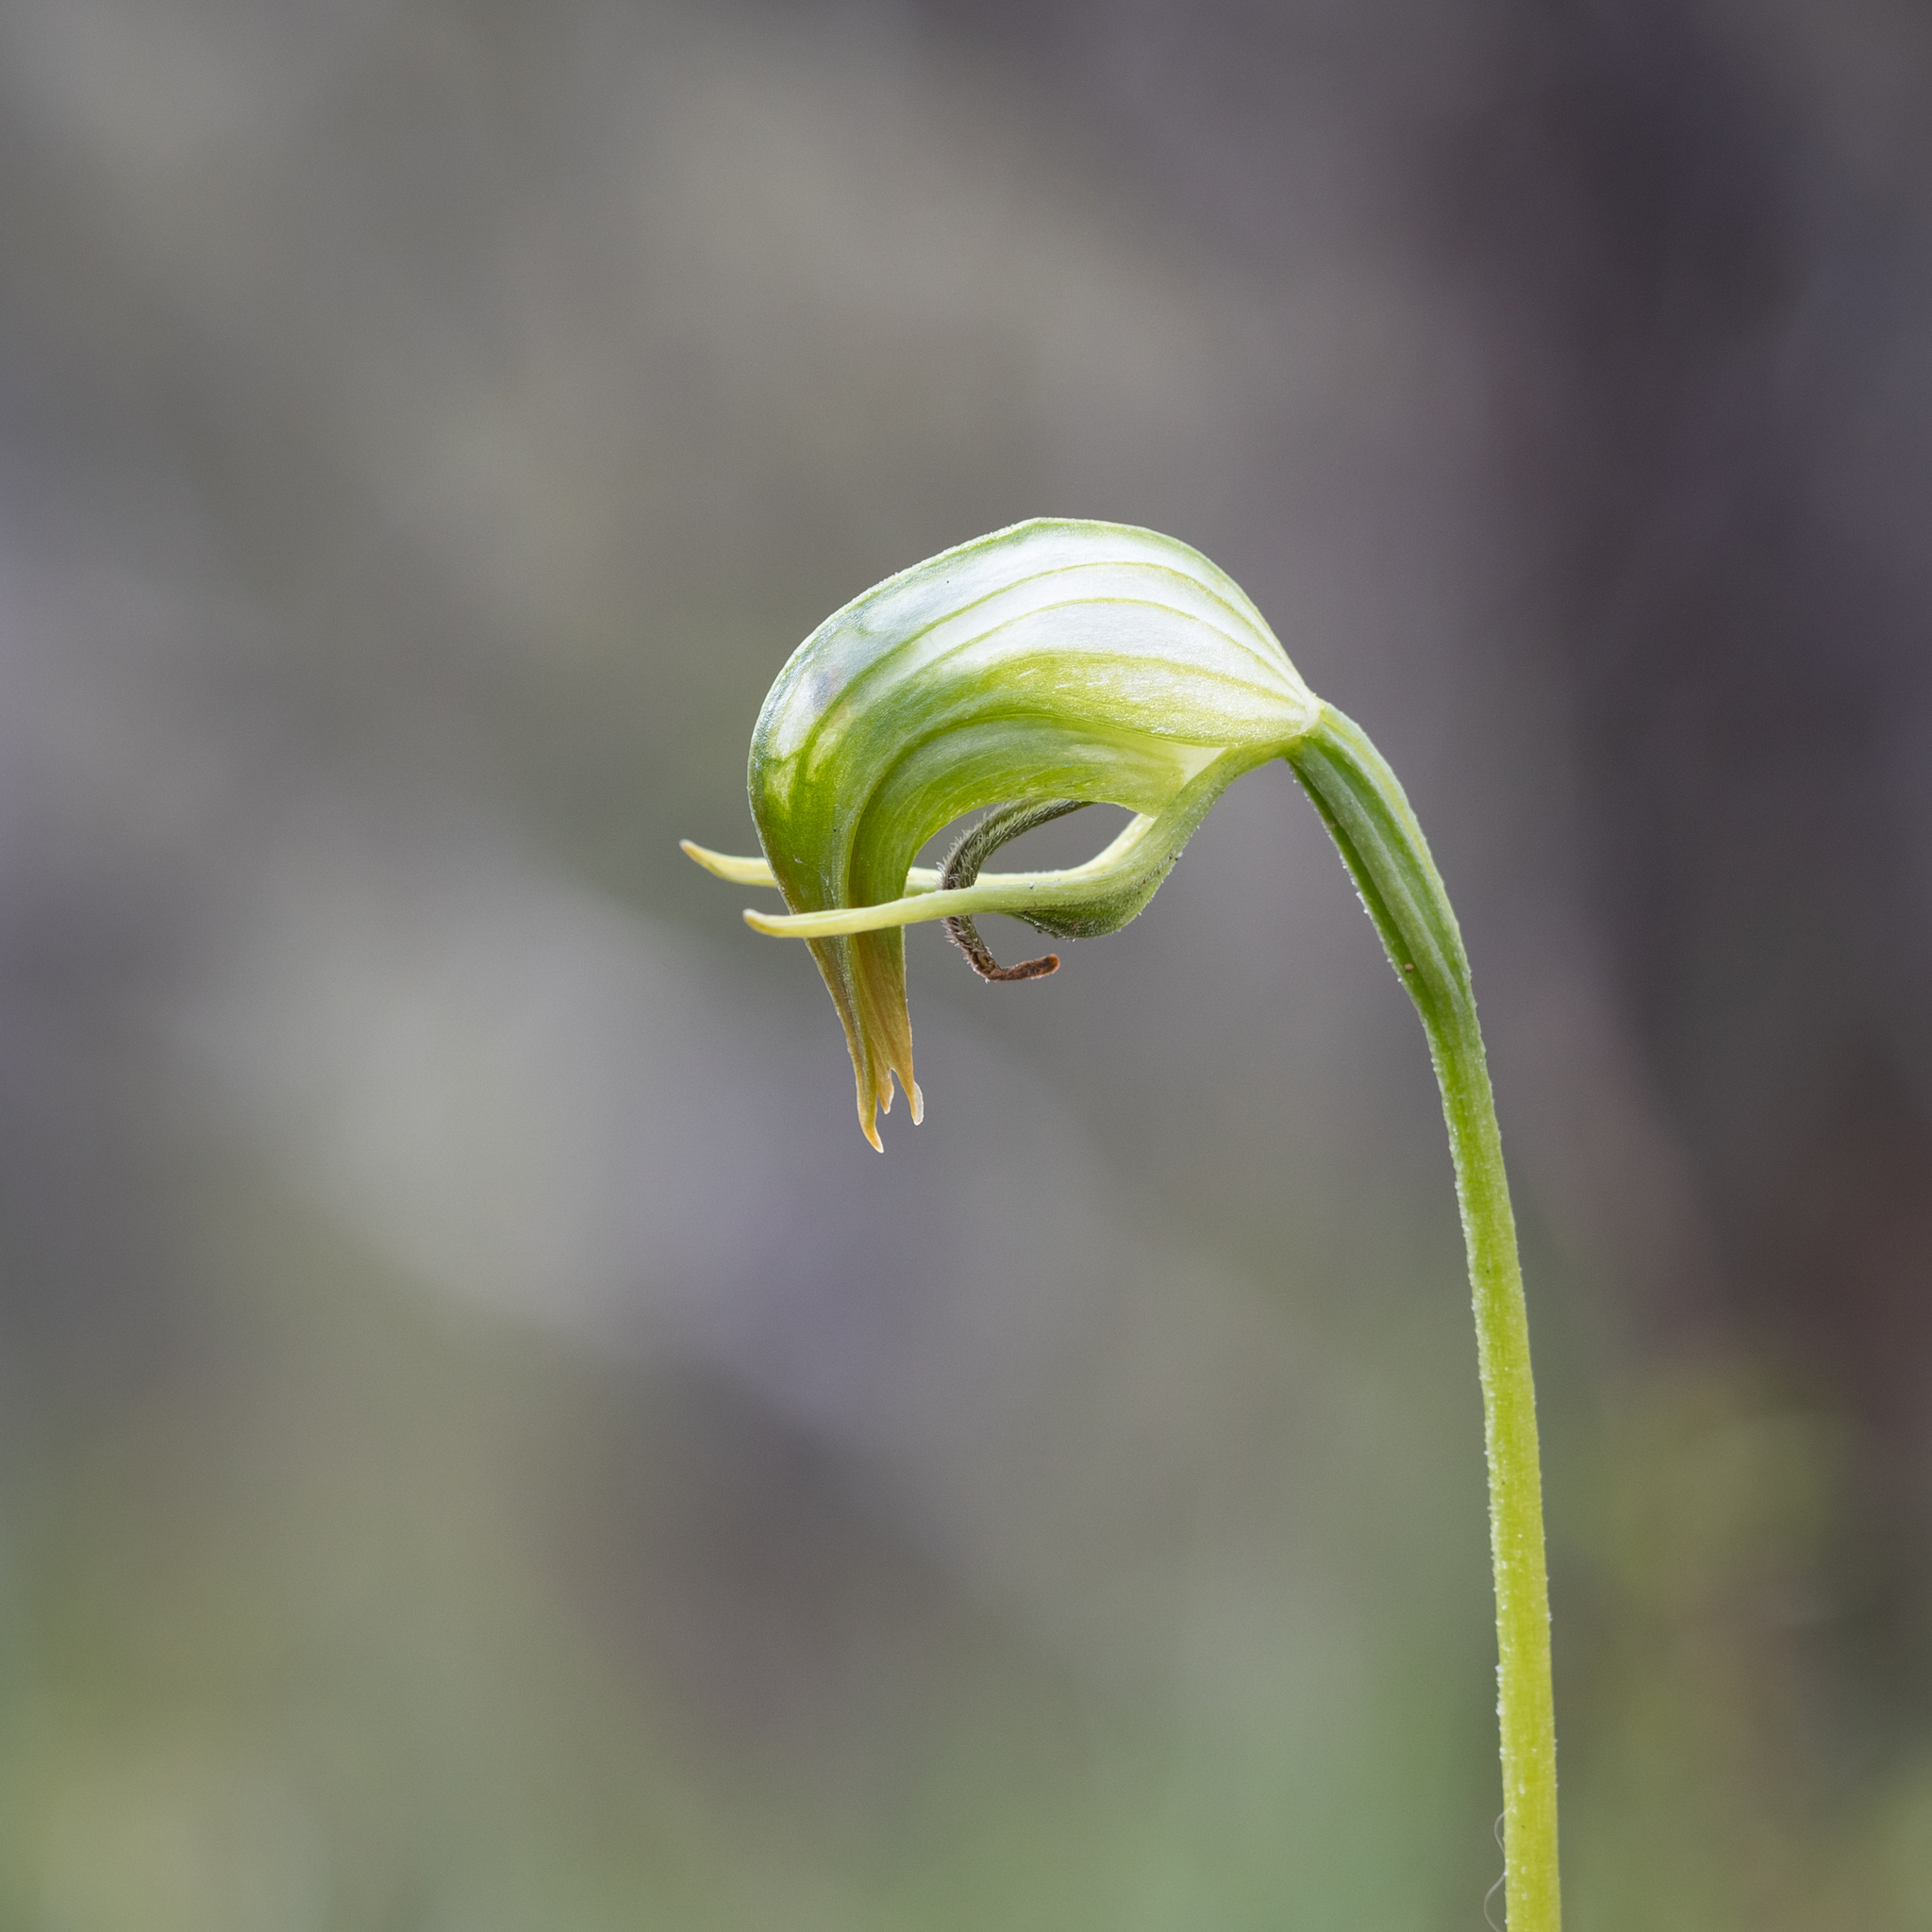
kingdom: Plantae
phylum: Tracheophyta
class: Liliopsida
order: Asparagales
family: Orchidaceae
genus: Pterostylis
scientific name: Pterostylis nutans
